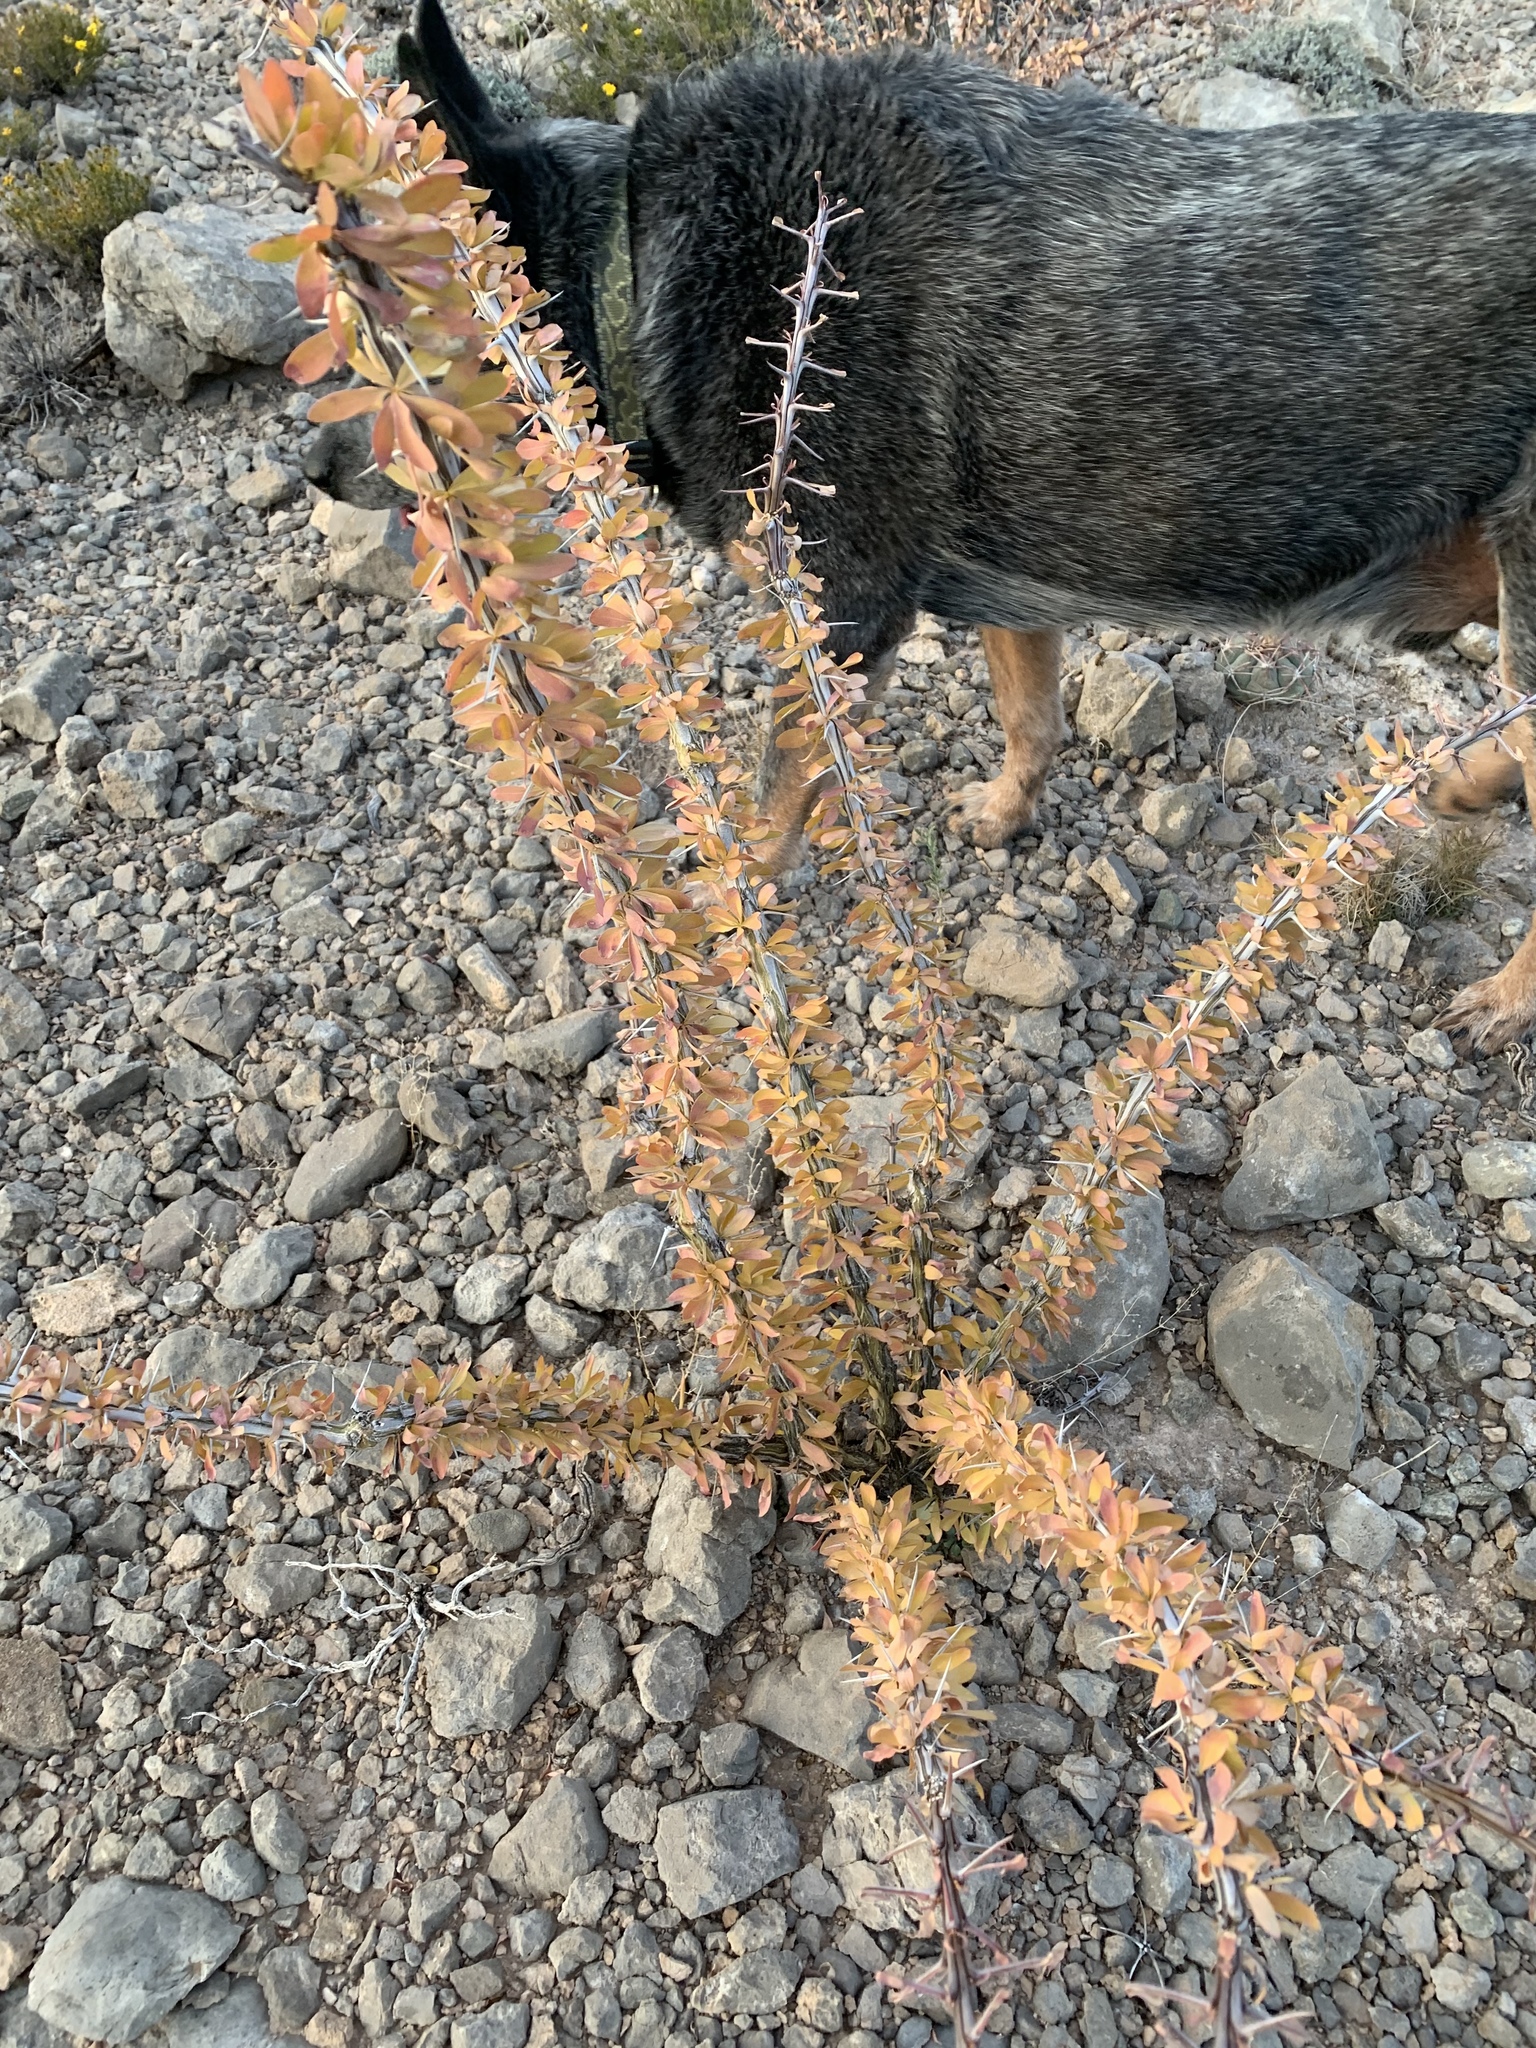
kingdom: Plantae
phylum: Tracheophyta
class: Magnoliopsida
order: Ericales
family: Fouquieriaceae
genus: Fouquieria
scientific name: Fouquieria splendens
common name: Vine-cactus
